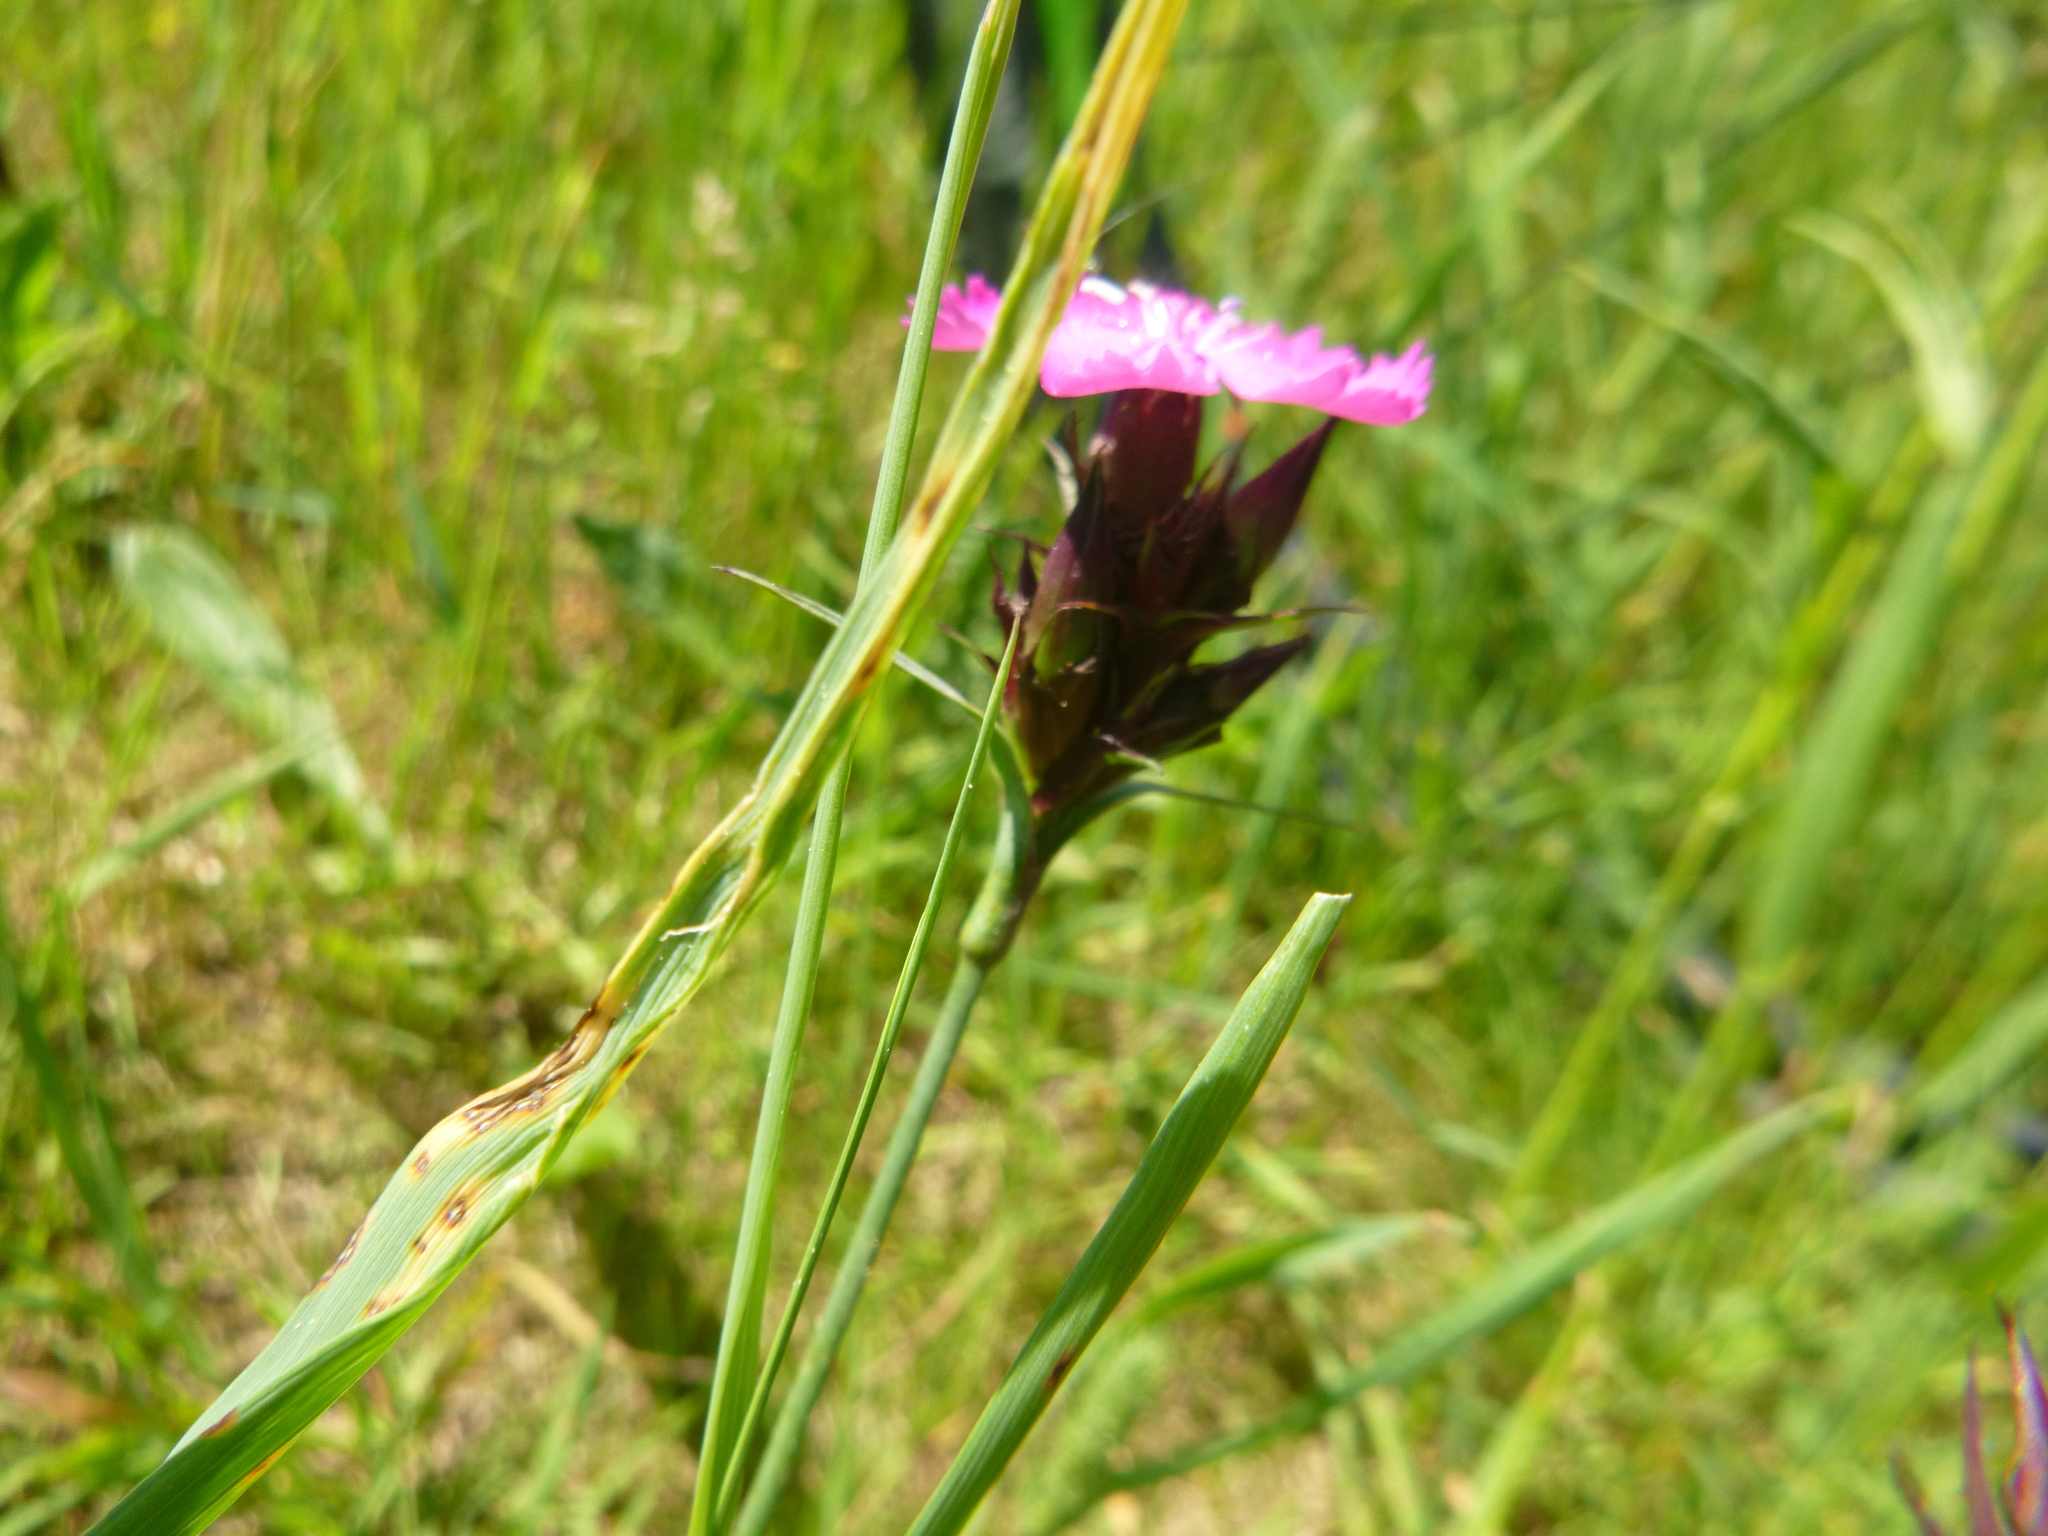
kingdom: Plantae
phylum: Tracheophyta
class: Magnoliopsida
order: Caryophyllales
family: Caryophyllaceae
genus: Dianthus
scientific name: Dianthus carthusianorum
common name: Carthusian pink
